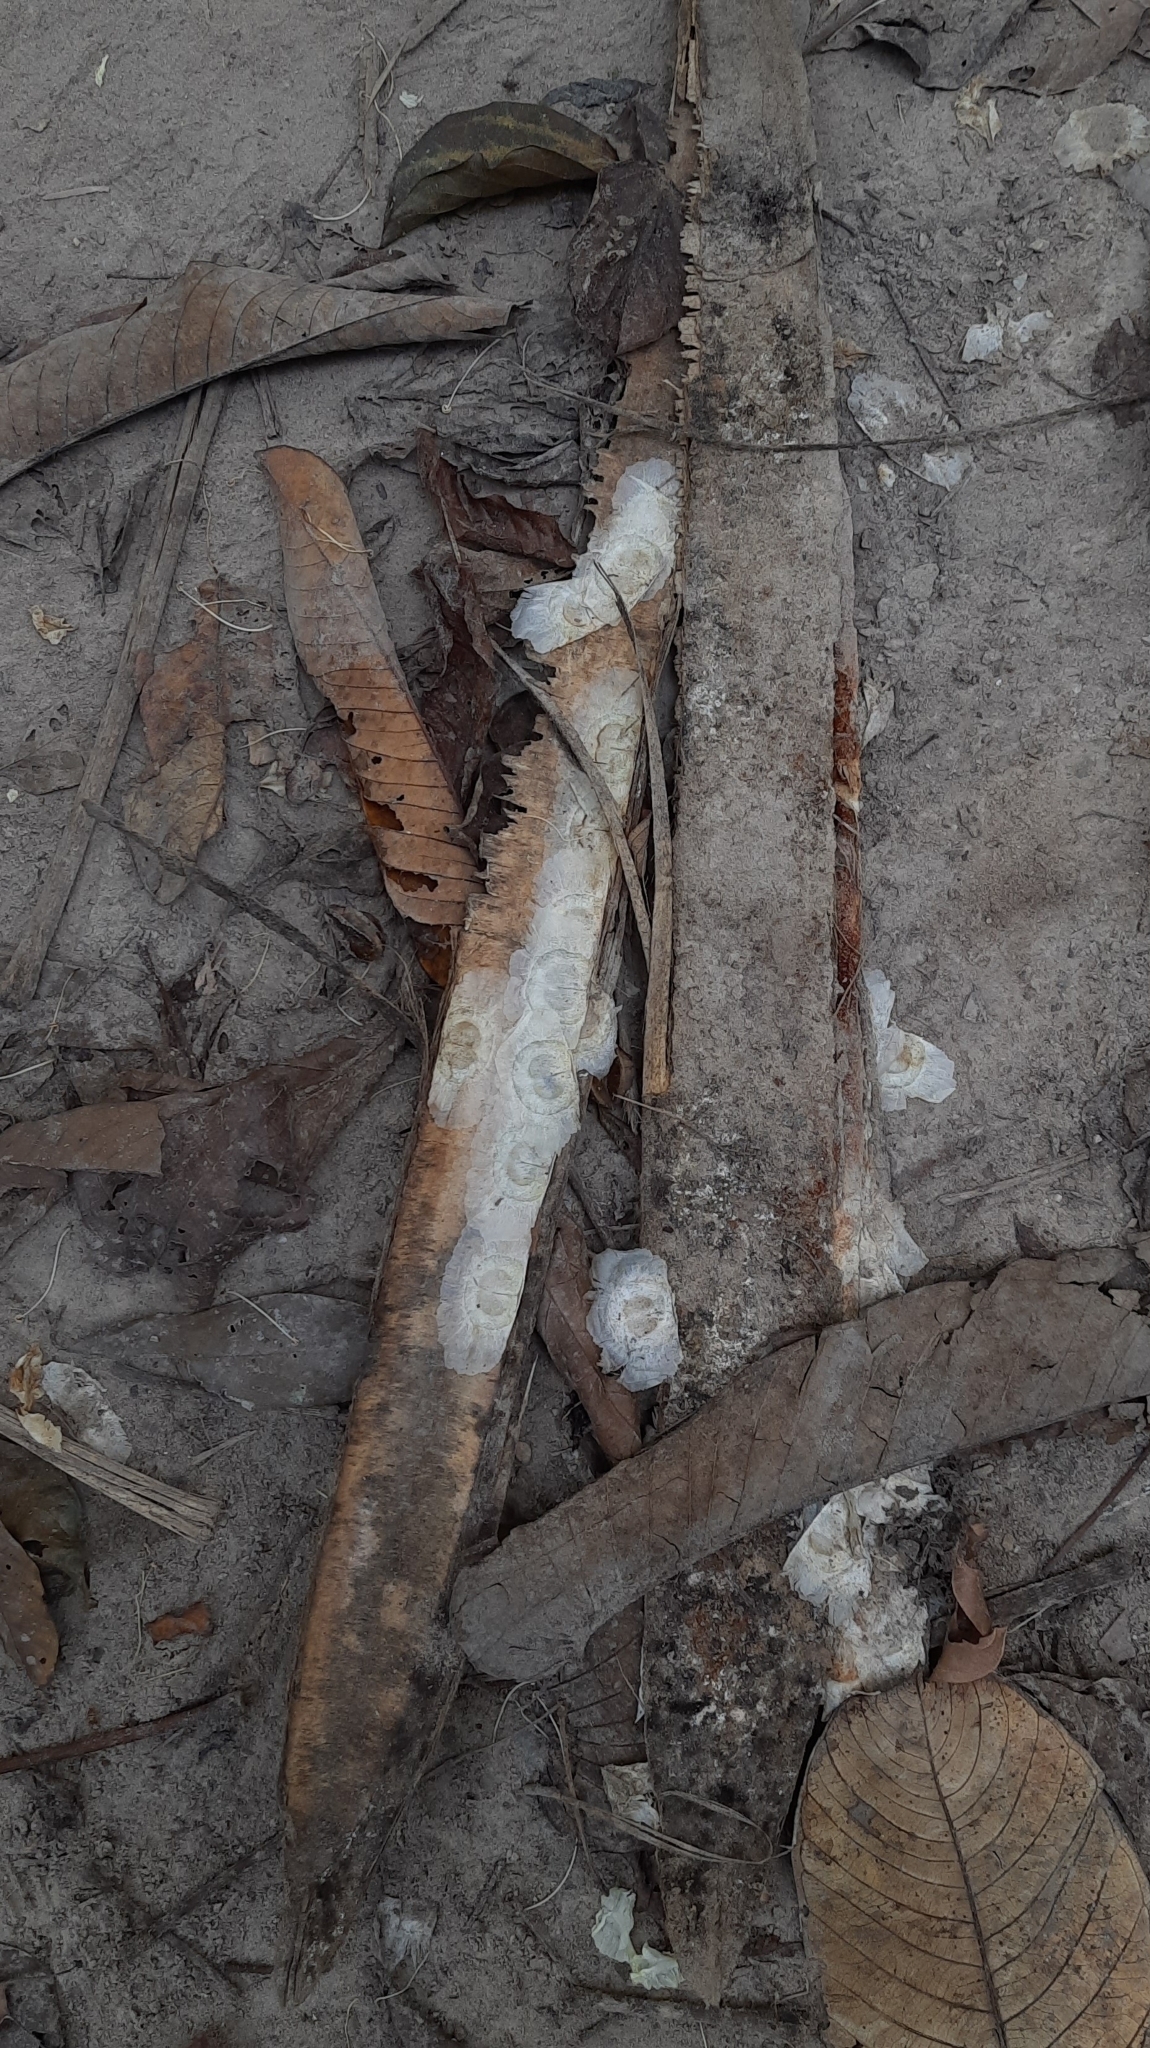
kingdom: Plantae
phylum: Tracheophyta
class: Magnoliopsida
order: Lamiales
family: Bignoniaceae
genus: Oroxylum
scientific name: Oroxylum indicum
